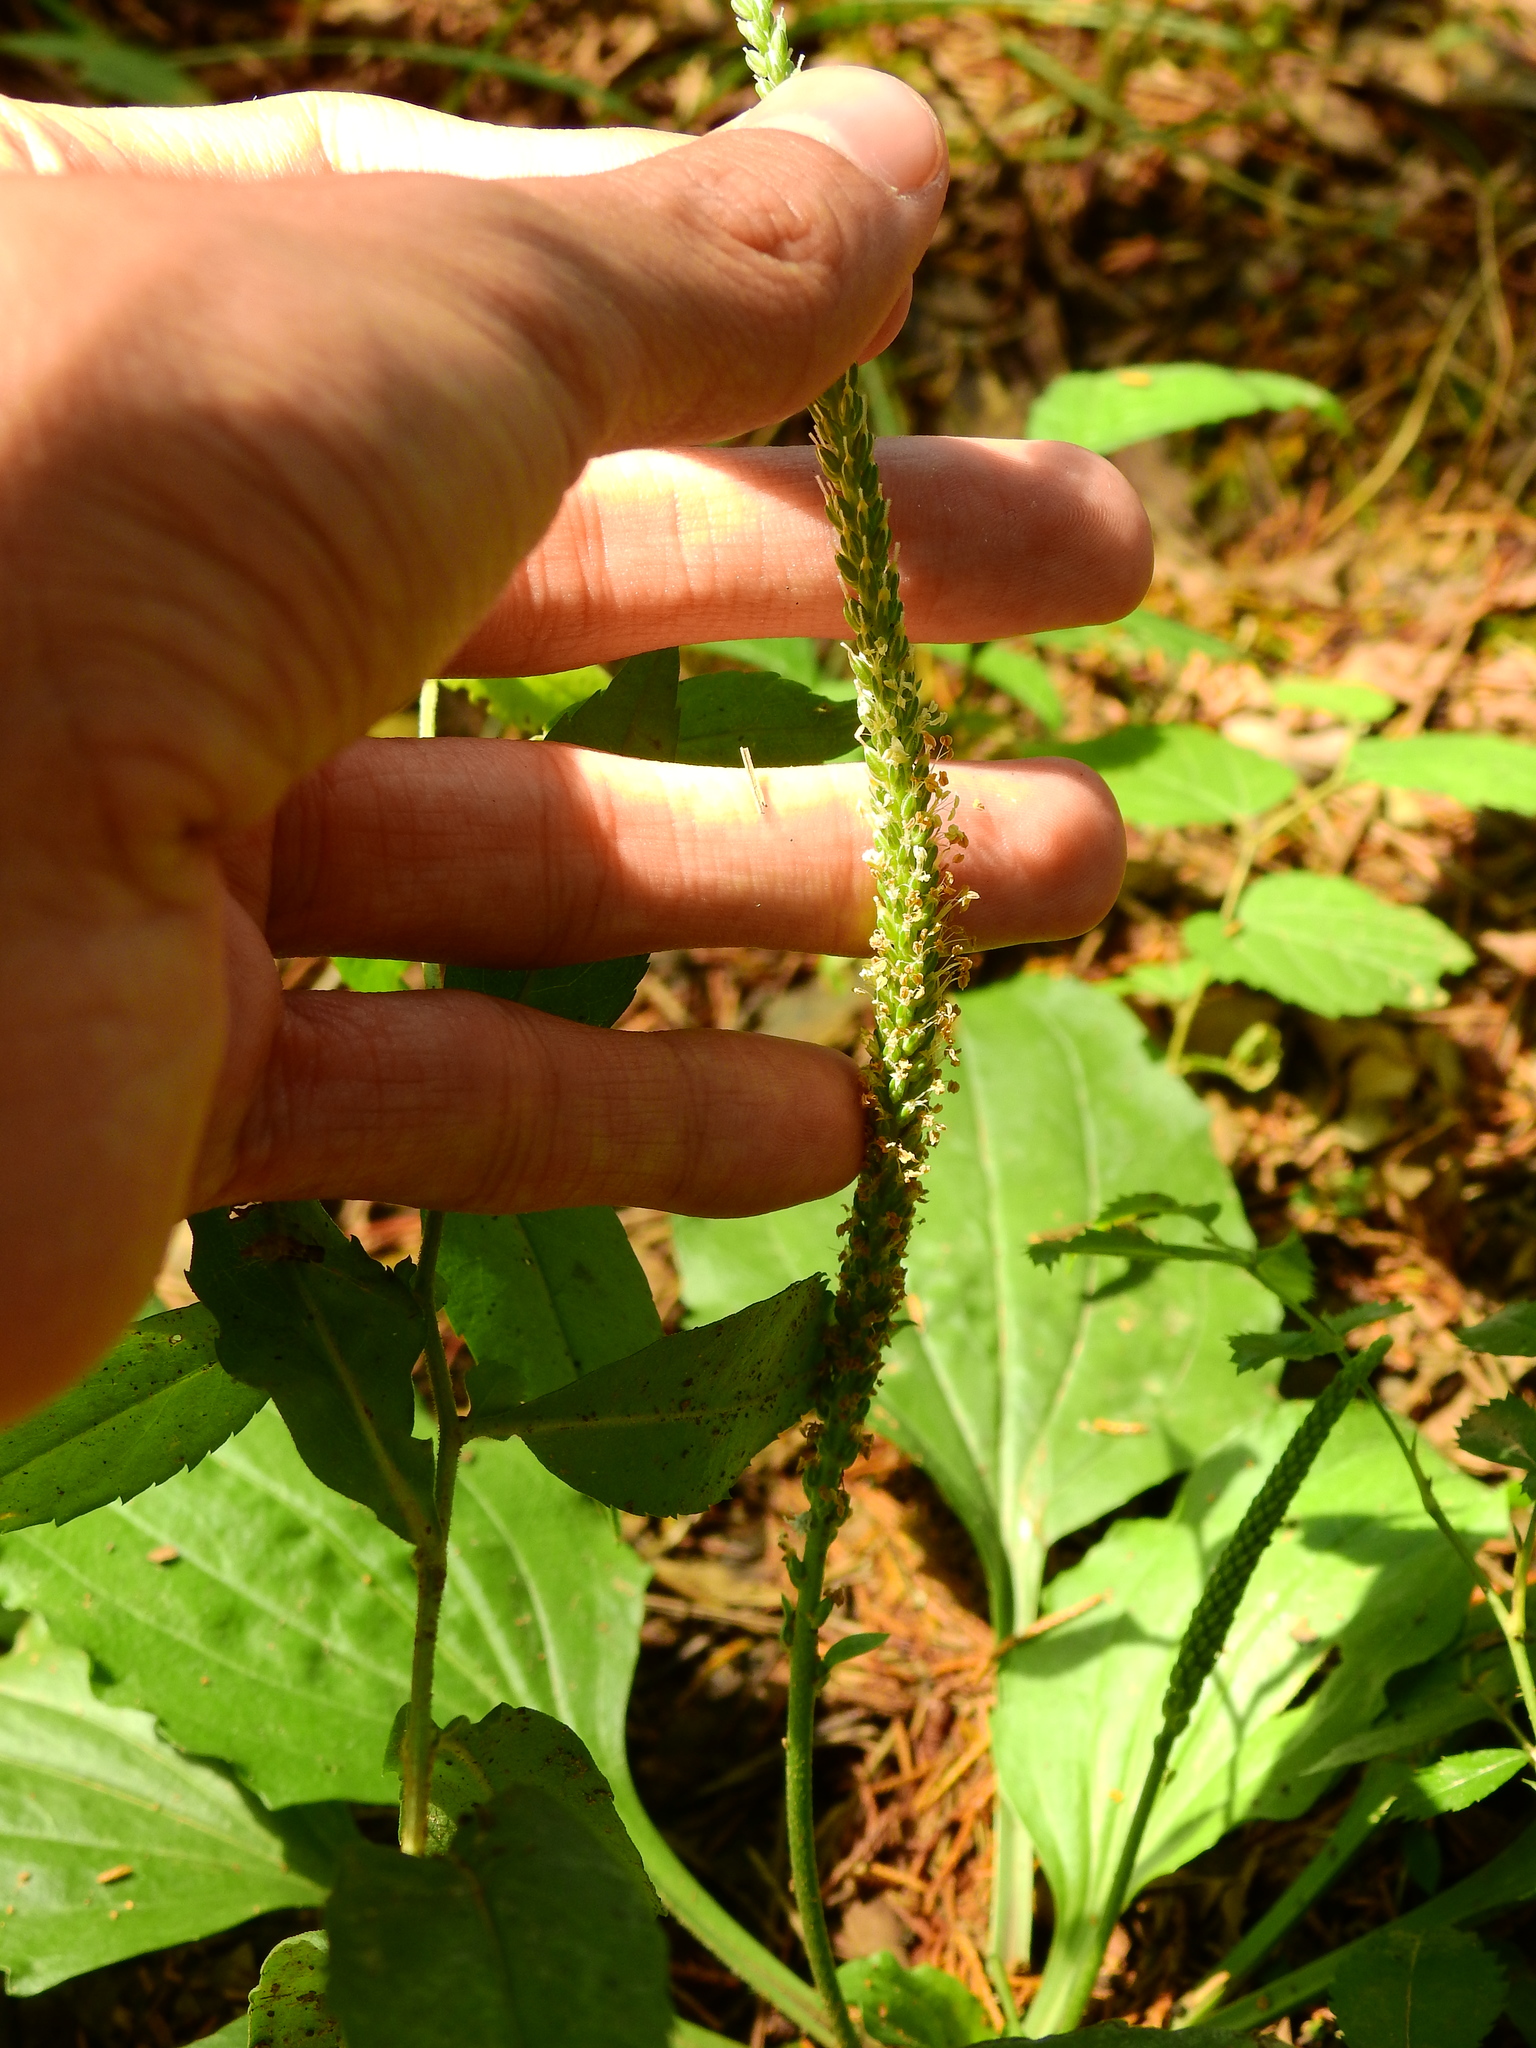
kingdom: Plantae
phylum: Tracheophyta
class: Magnoliopsida
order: Lamiales
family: Plantaginaceae
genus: Plantago
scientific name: Plantago rugelii
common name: American plantain
